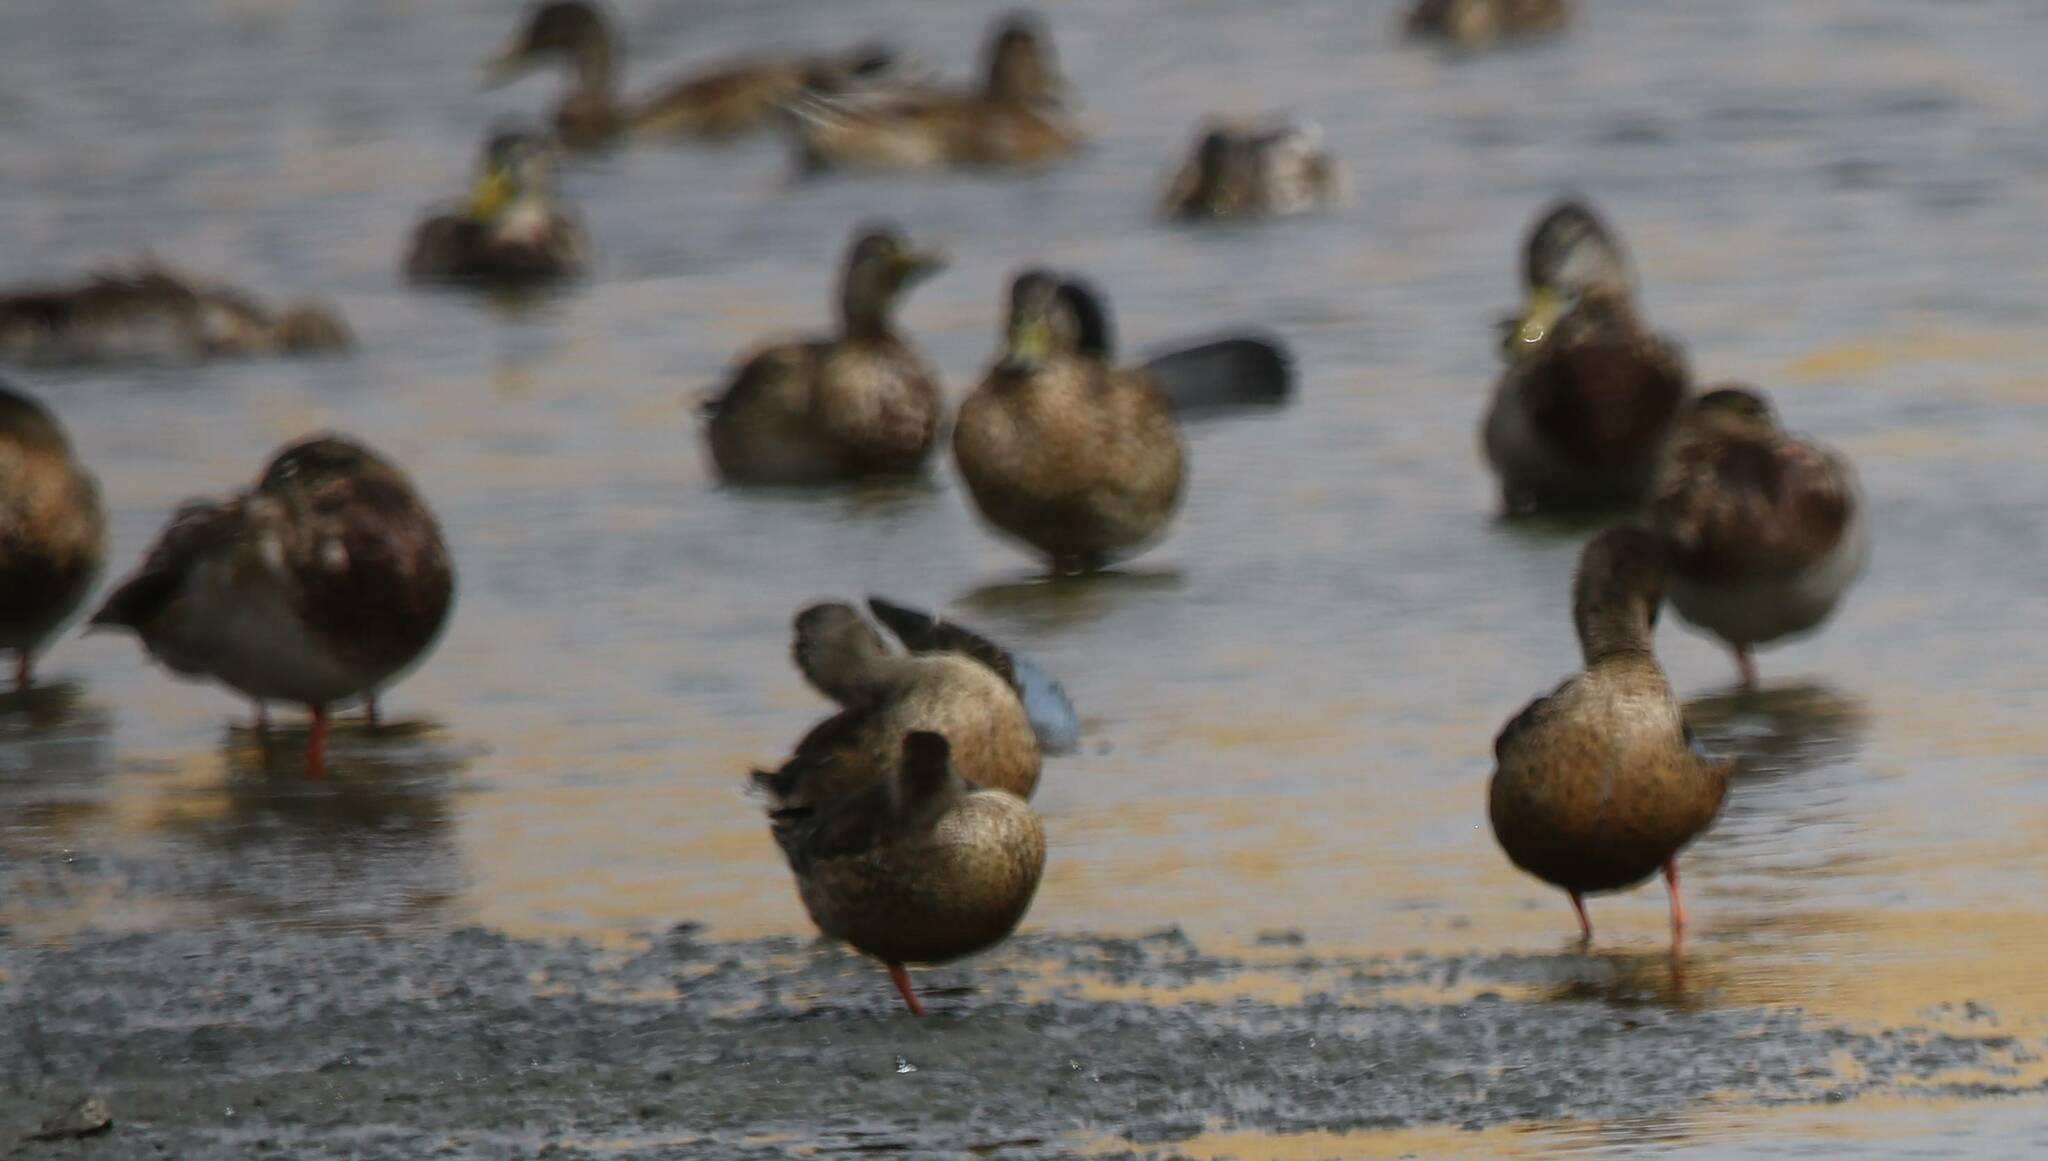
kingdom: Animalia
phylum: Chordata
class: Aves
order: Anseriformes
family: Anatidae
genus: Spatula
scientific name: Spatula clypeata
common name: Northern shoveler
